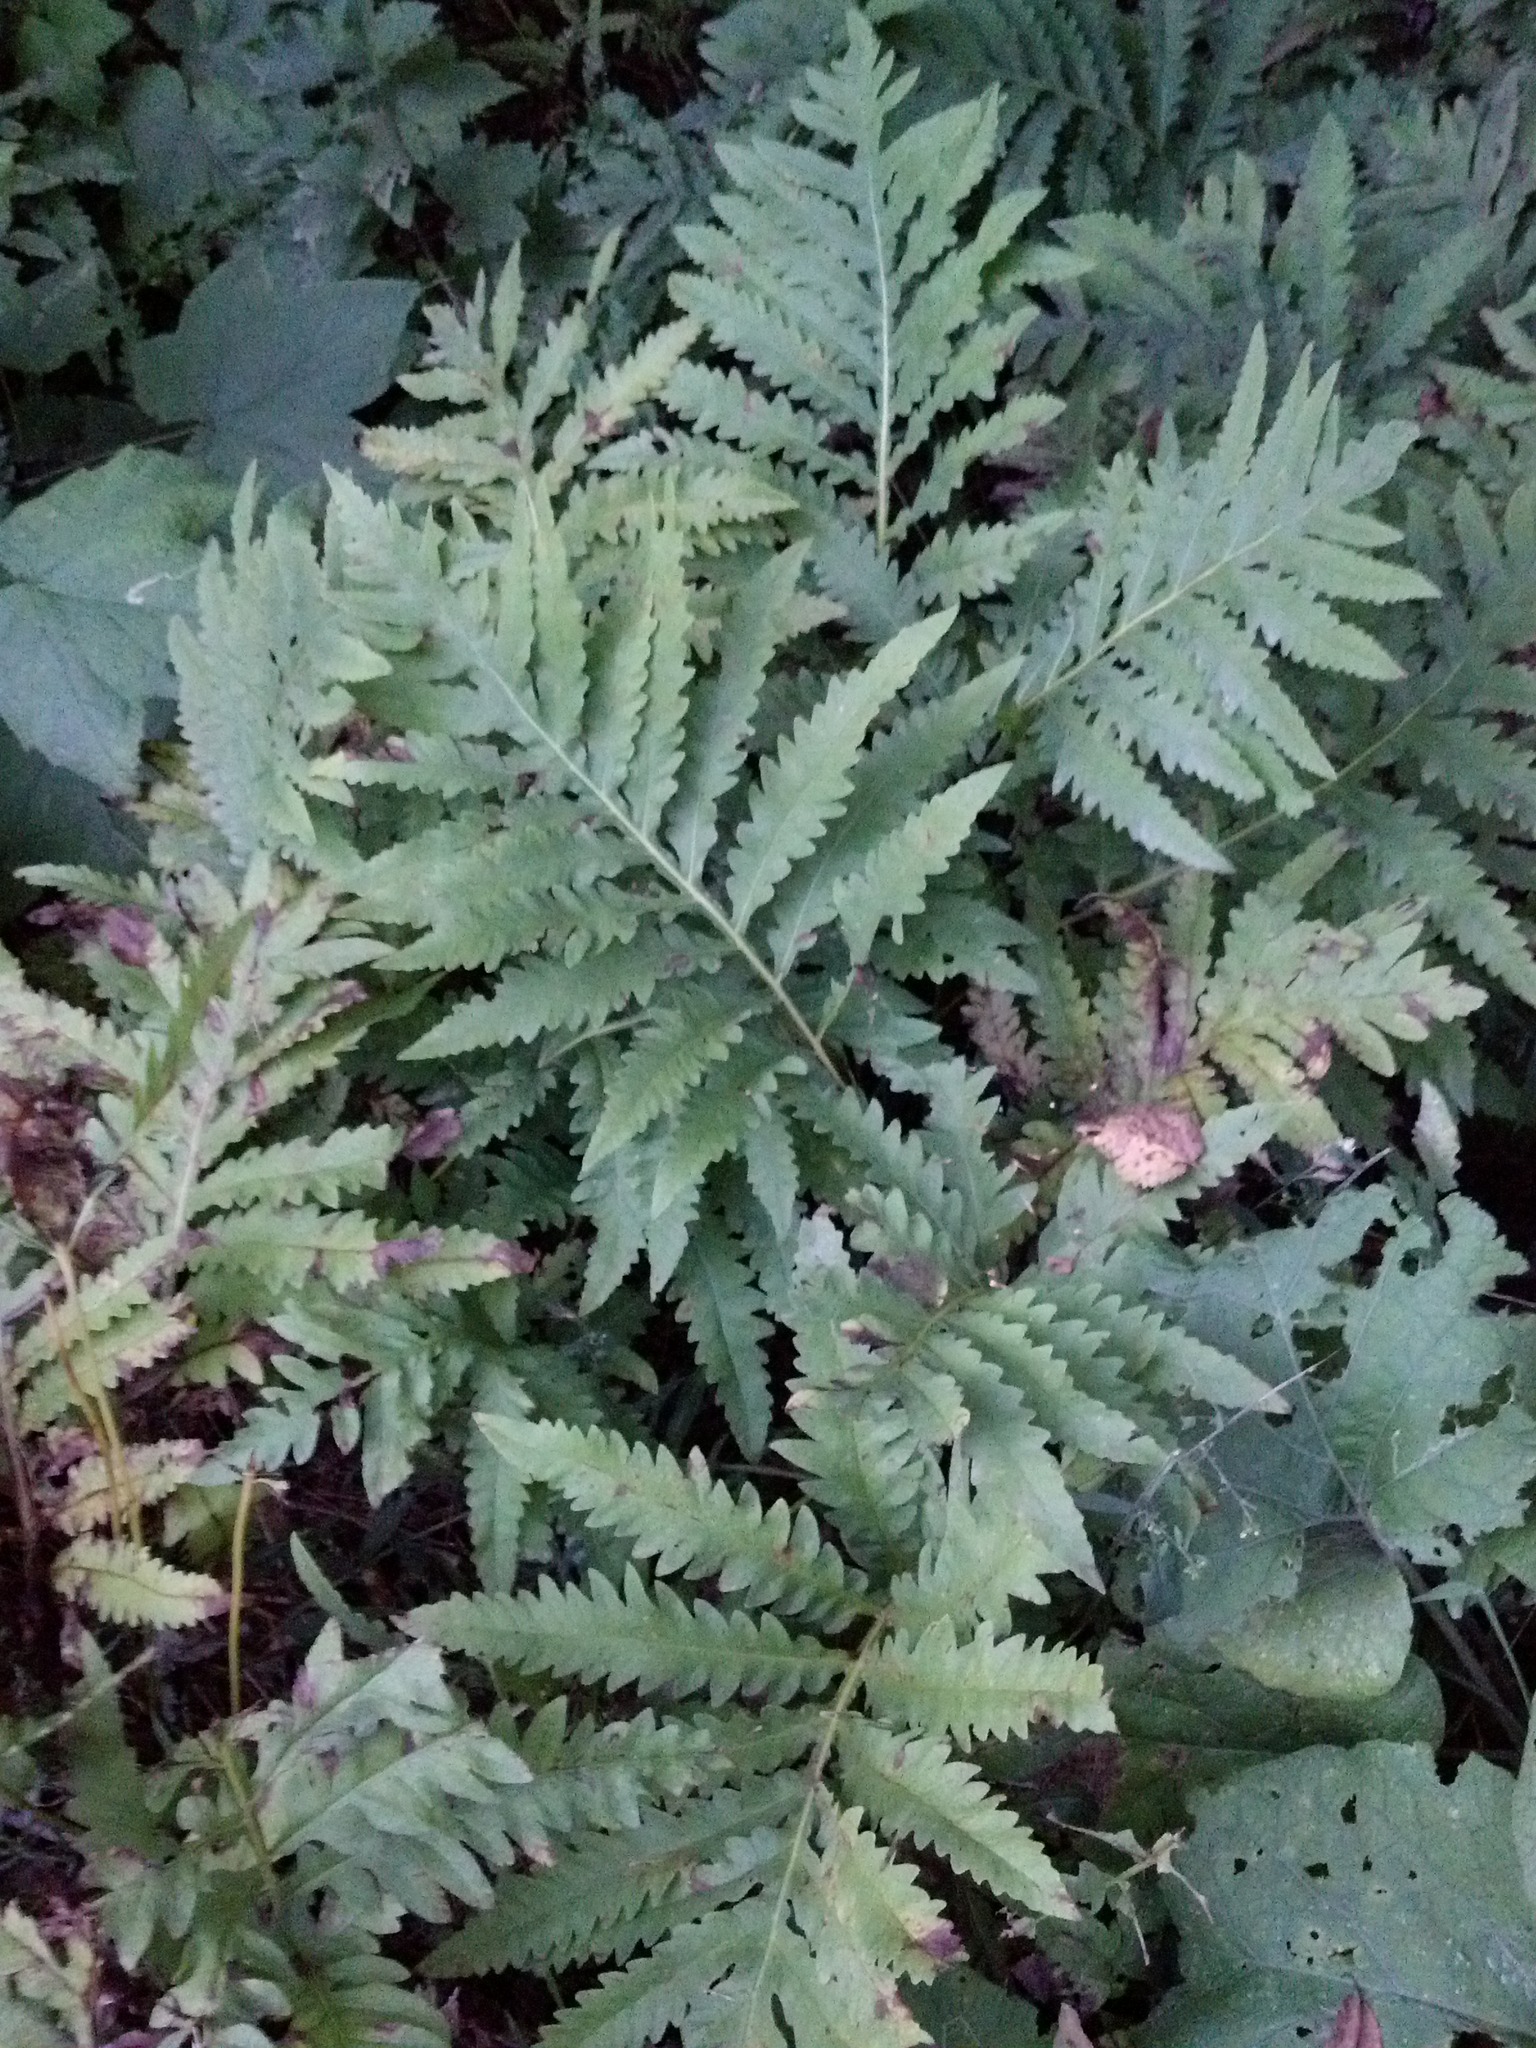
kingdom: Plantae
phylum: Tracheophyta
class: Polypodiopsida
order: Polypodiales
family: Onocleaceae
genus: Onoclea
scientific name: Onoclea sensibilis
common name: Sensitive fern
